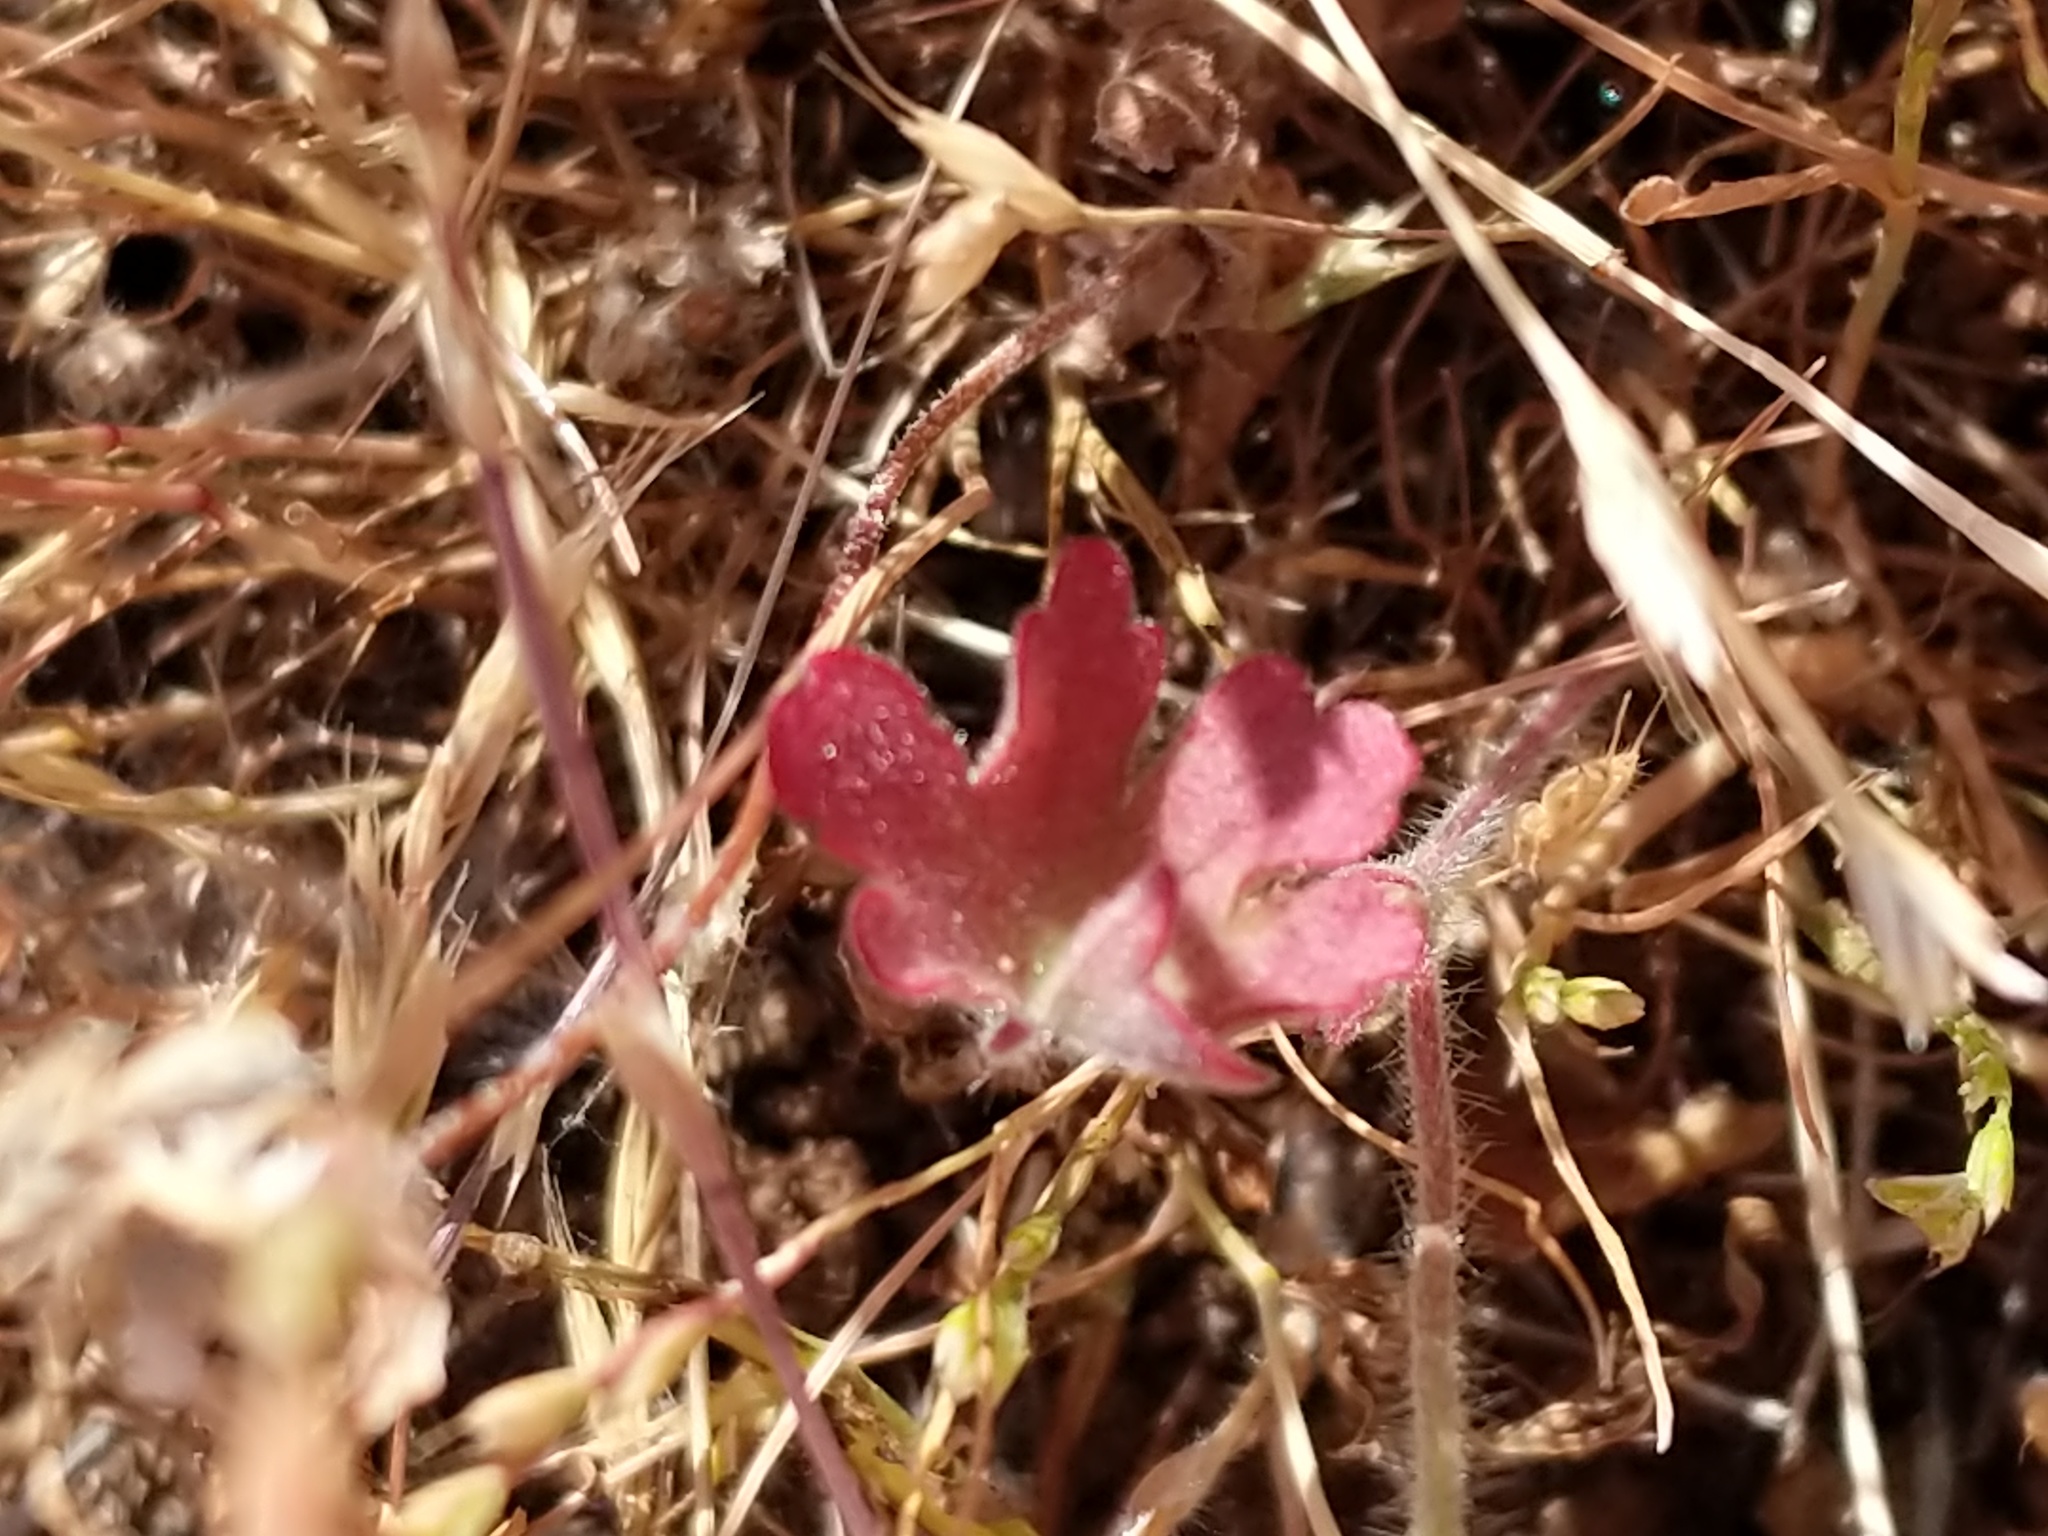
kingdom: Plantae
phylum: Tracheophyta
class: Magnoliopsida
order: Malvales
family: Malvaceae
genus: Sidalcea
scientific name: Sidalcea diploscypha
